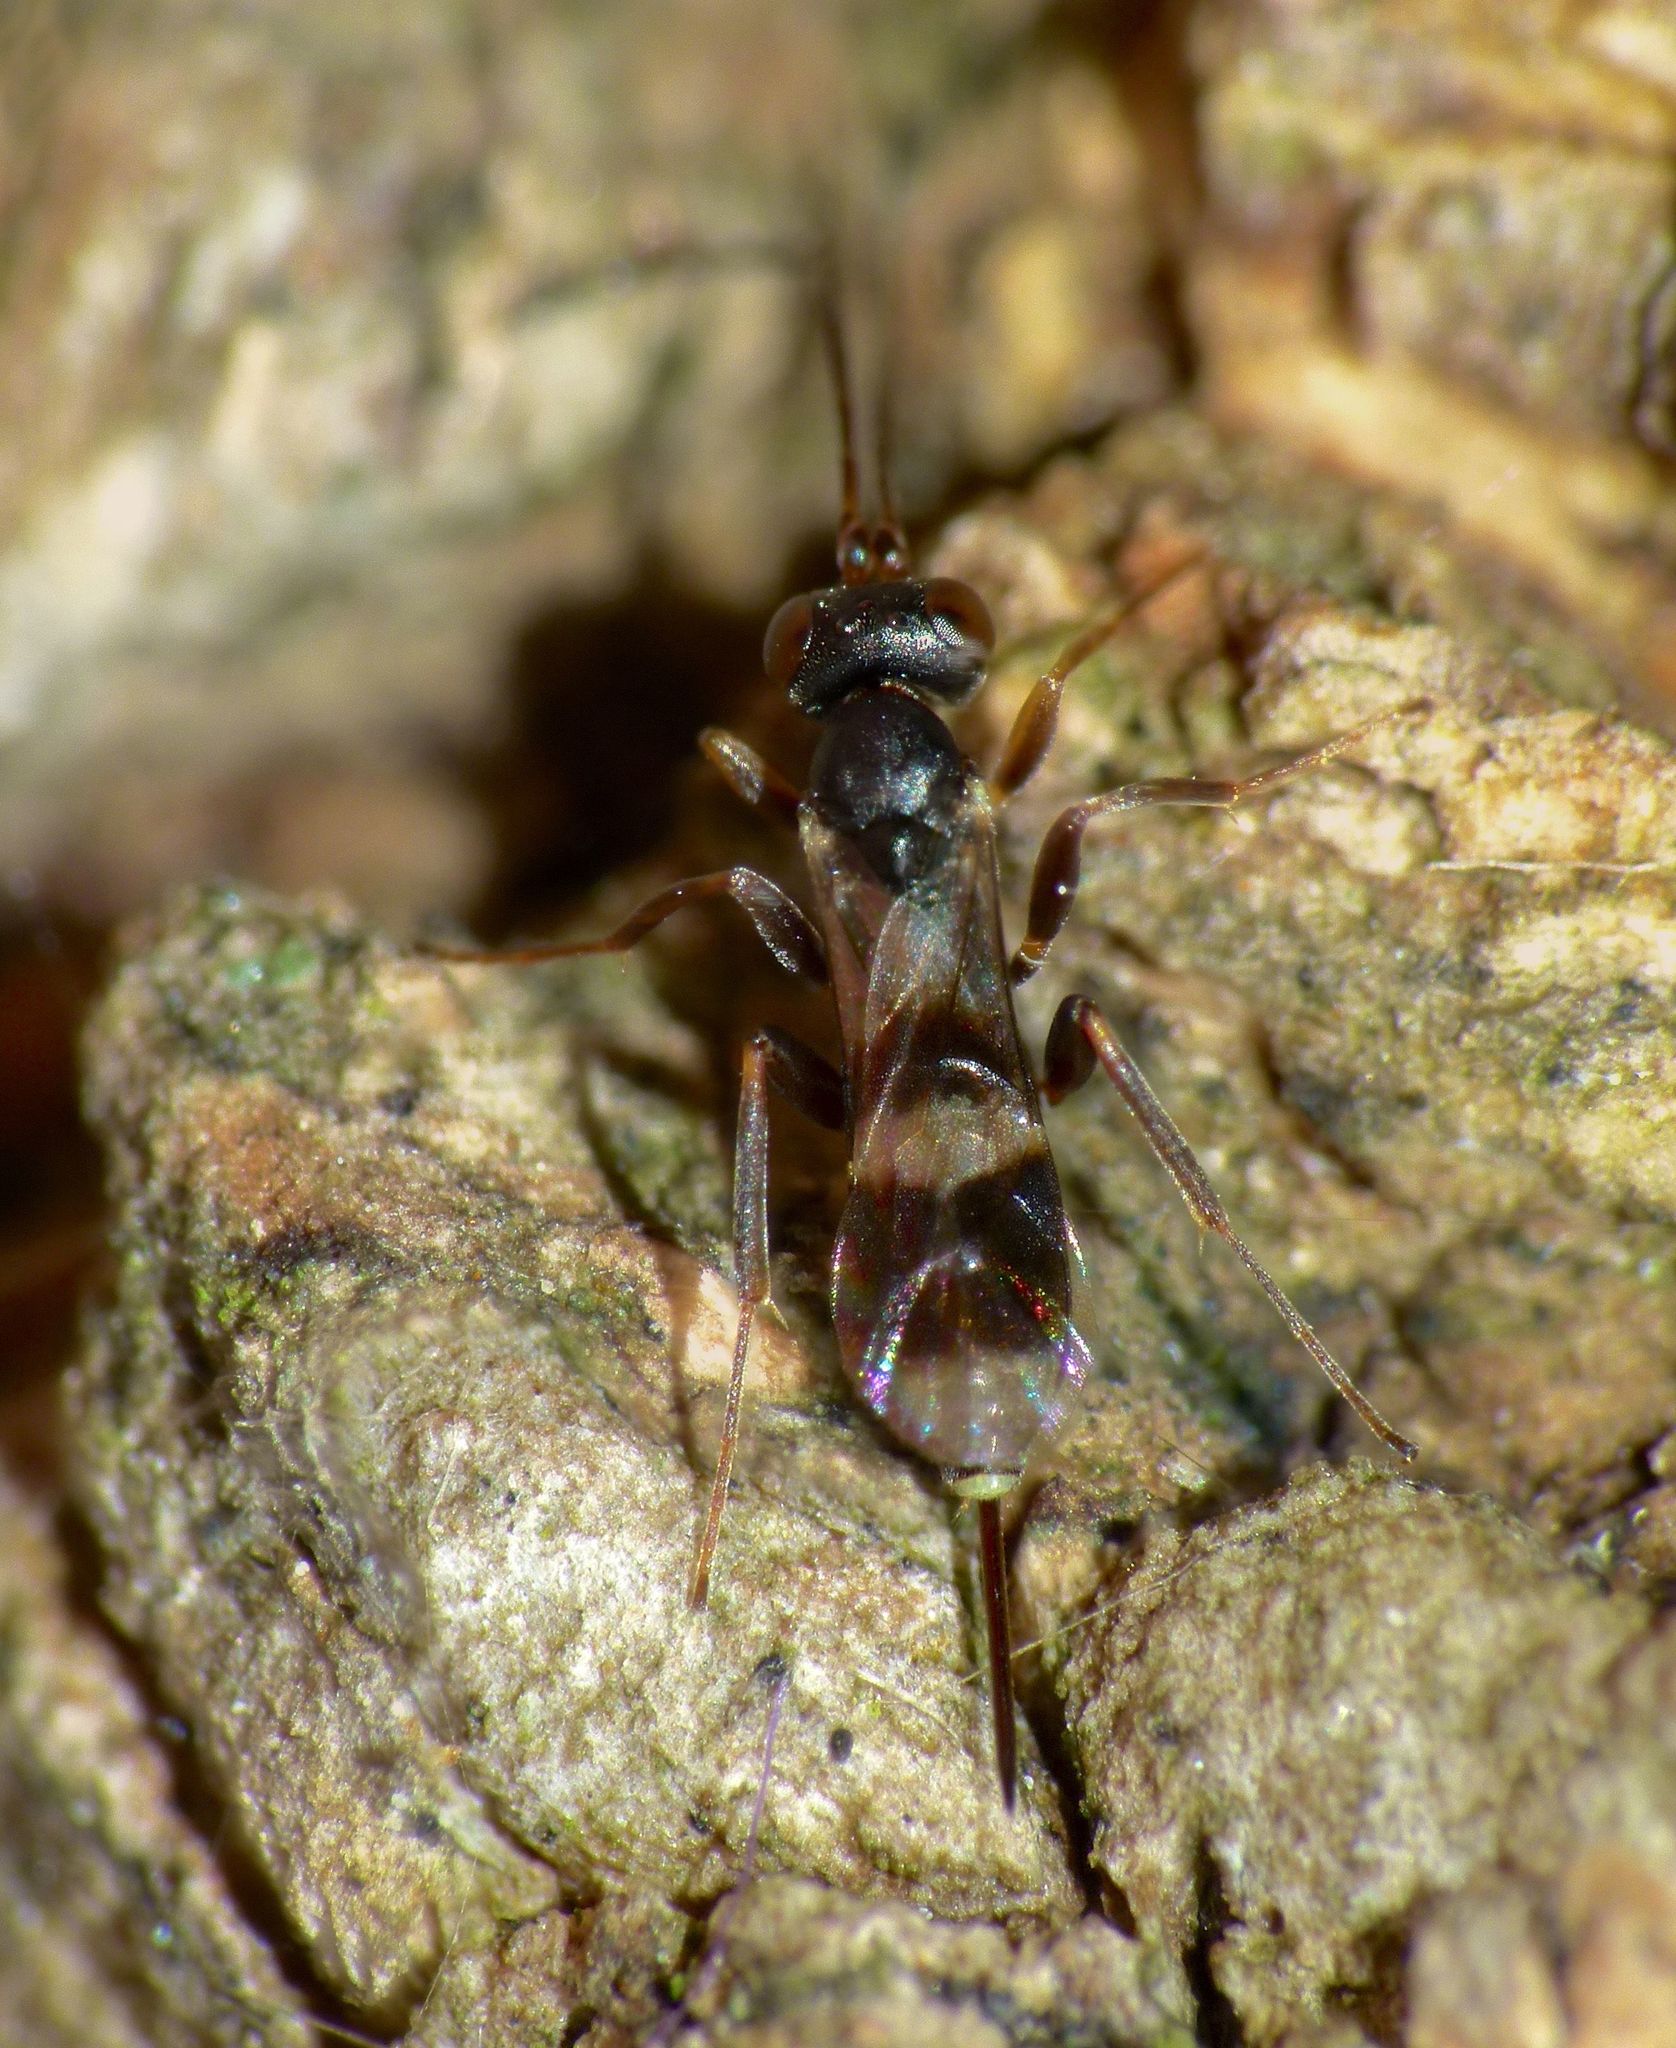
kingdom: Animalia
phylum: Arthropoda
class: Insecta
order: Hymenoptera
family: Ichneumonidae
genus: Gelis
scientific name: Gelis cinctus
